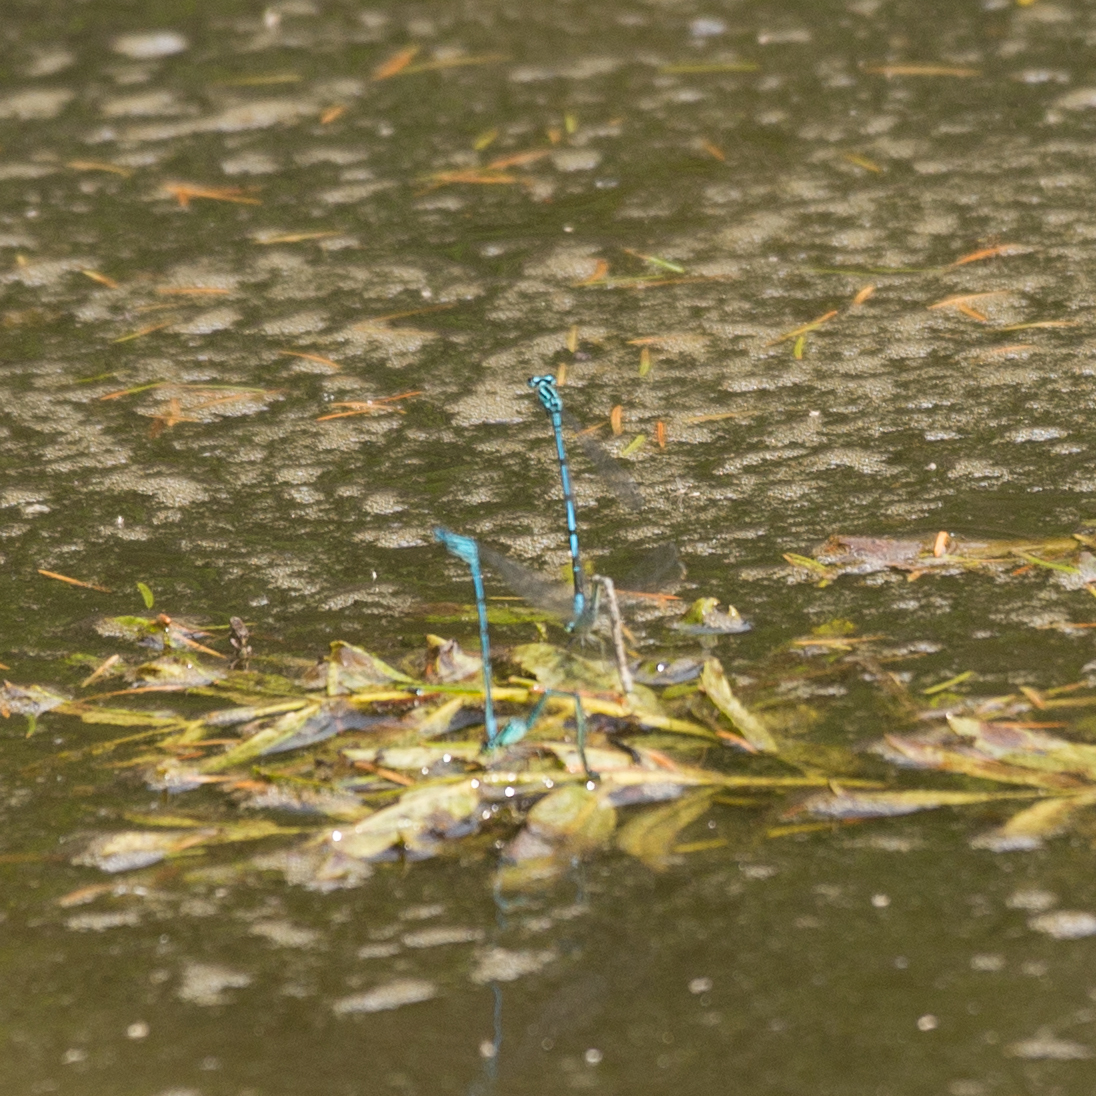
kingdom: Animalia
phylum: Arthropoda
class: Insecta
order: Odonata
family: Coenagrionidae
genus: Coenagrion
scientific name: Coenagrion puella
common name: Azure damselfly
